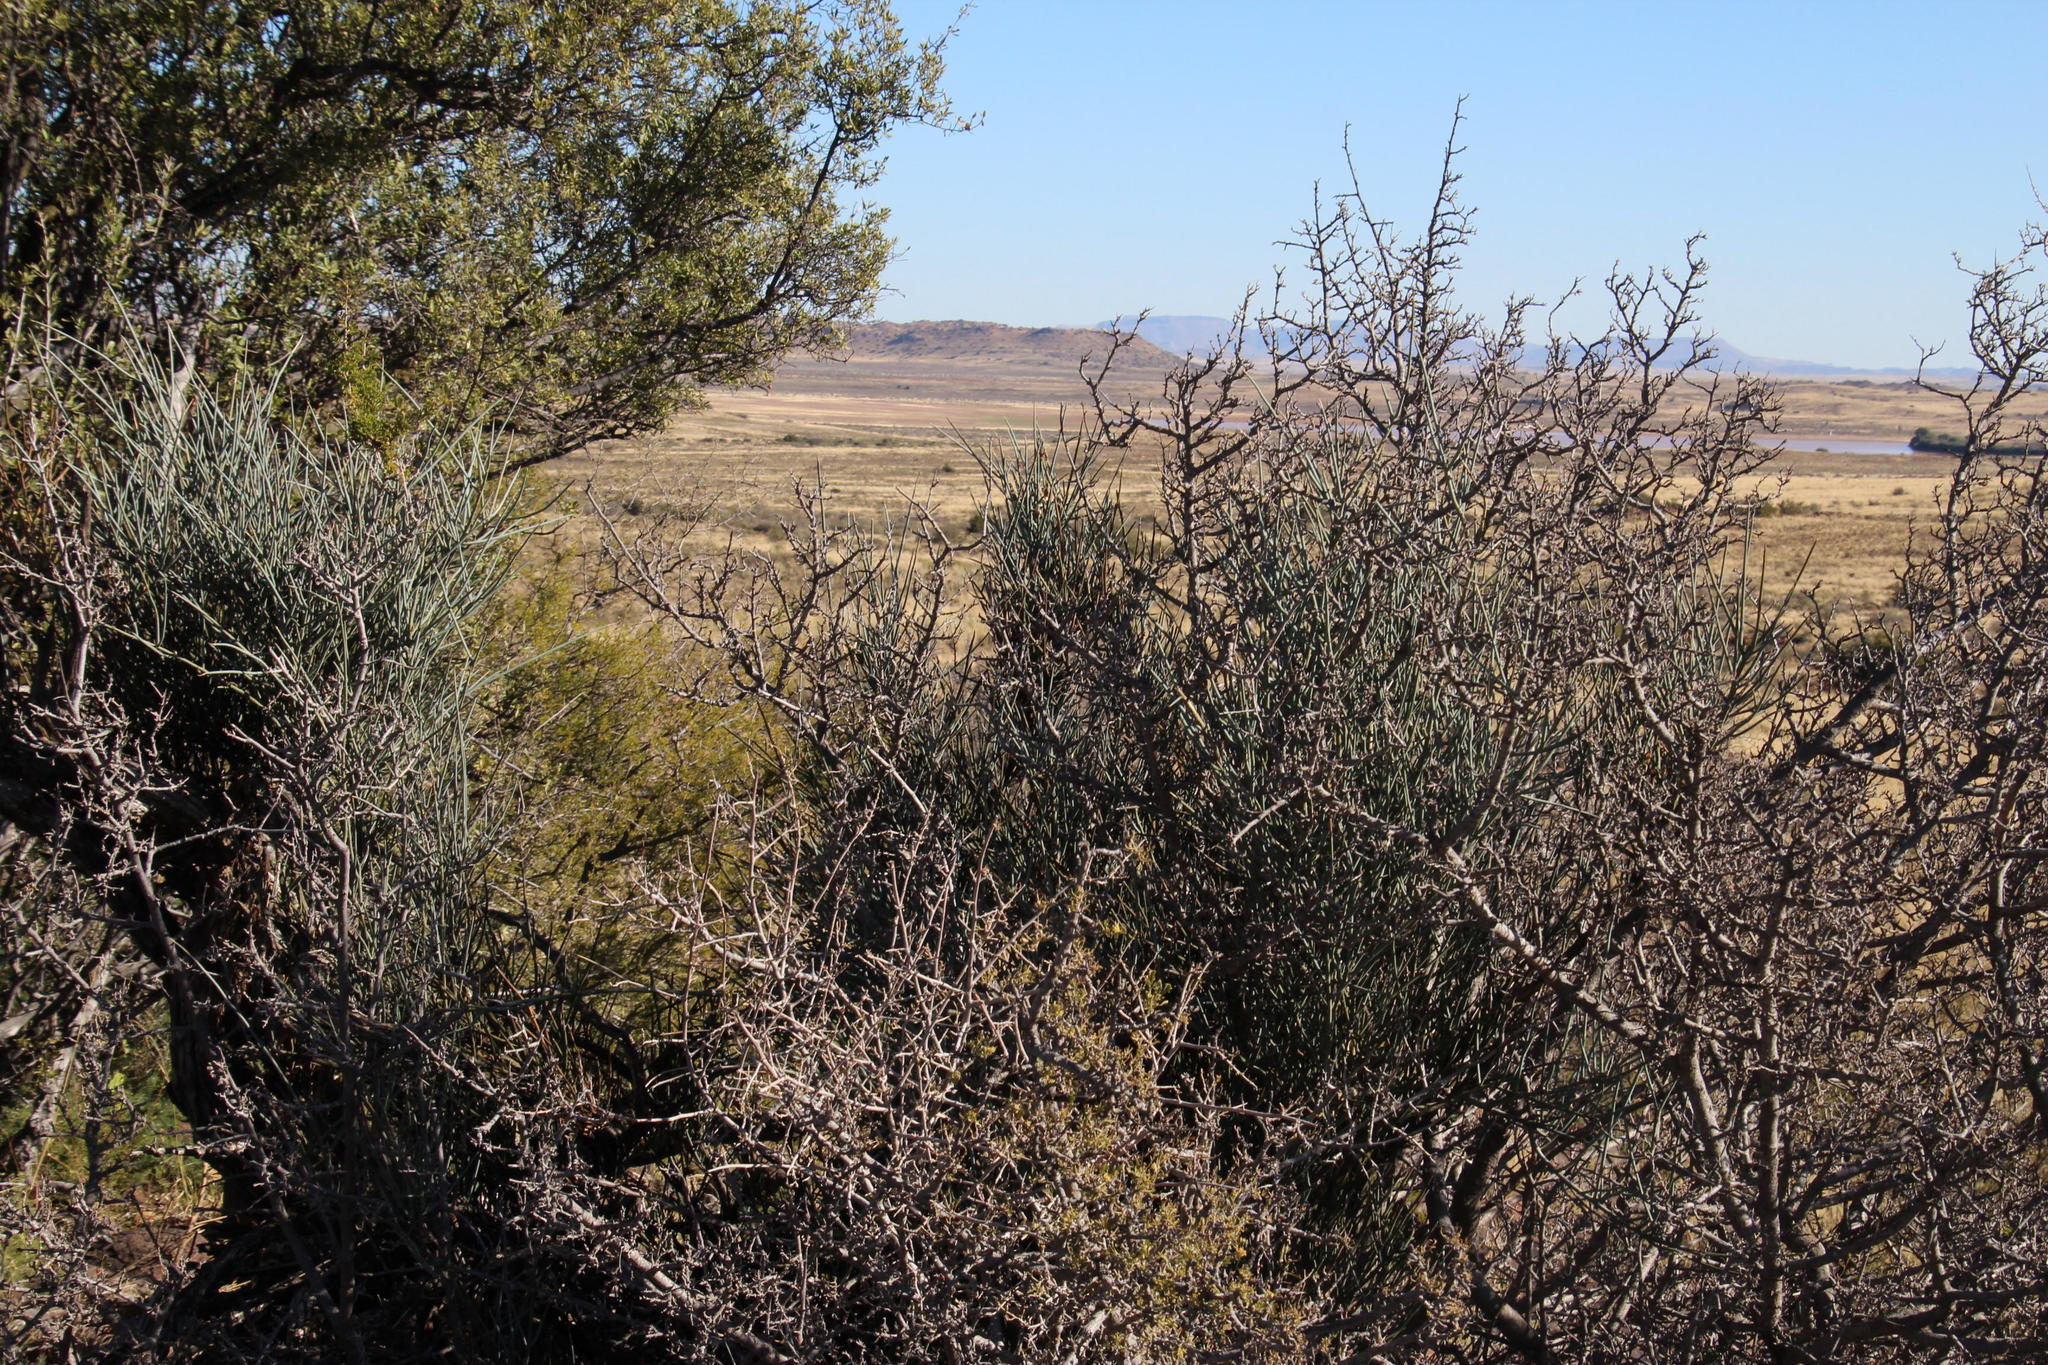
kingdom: Plantae
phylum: Tracheophyta
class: Magnoliopsida
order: Brassicales
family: Capparaceae
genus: Cadaba
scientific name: Cadaba aphylla
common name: Black storm
